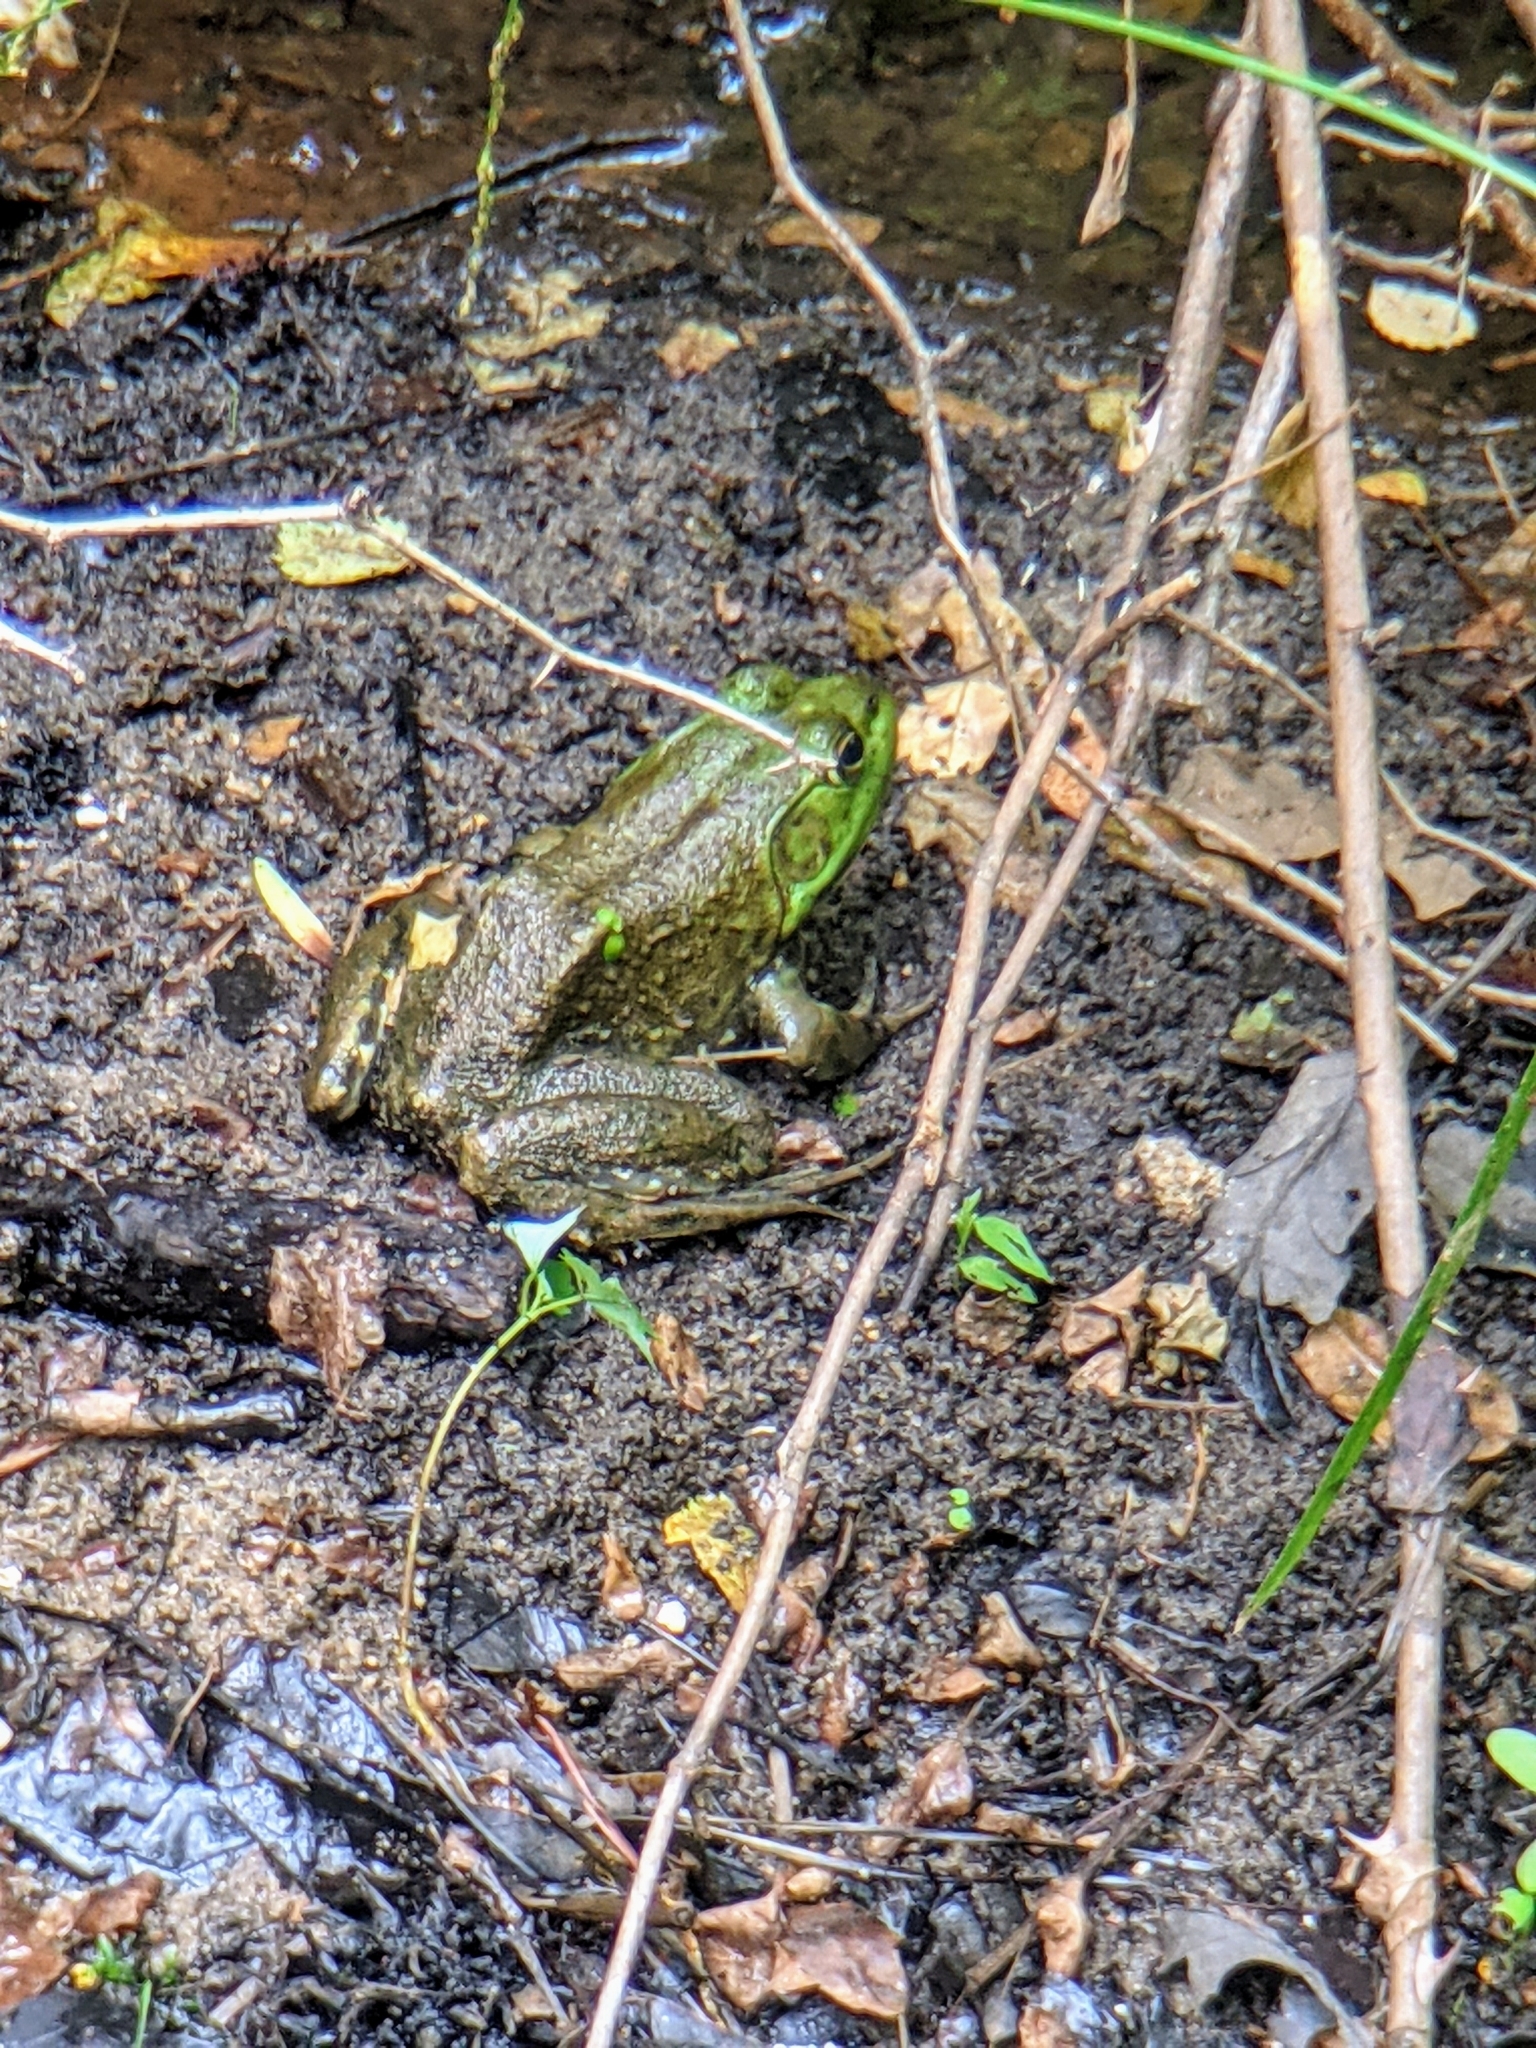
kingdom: Animalia
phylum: Chordata
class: Amphibia
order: Anura
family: Ranidae
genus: Lithobates
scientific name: Lithobates catesbeianus
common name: American bullfrog
